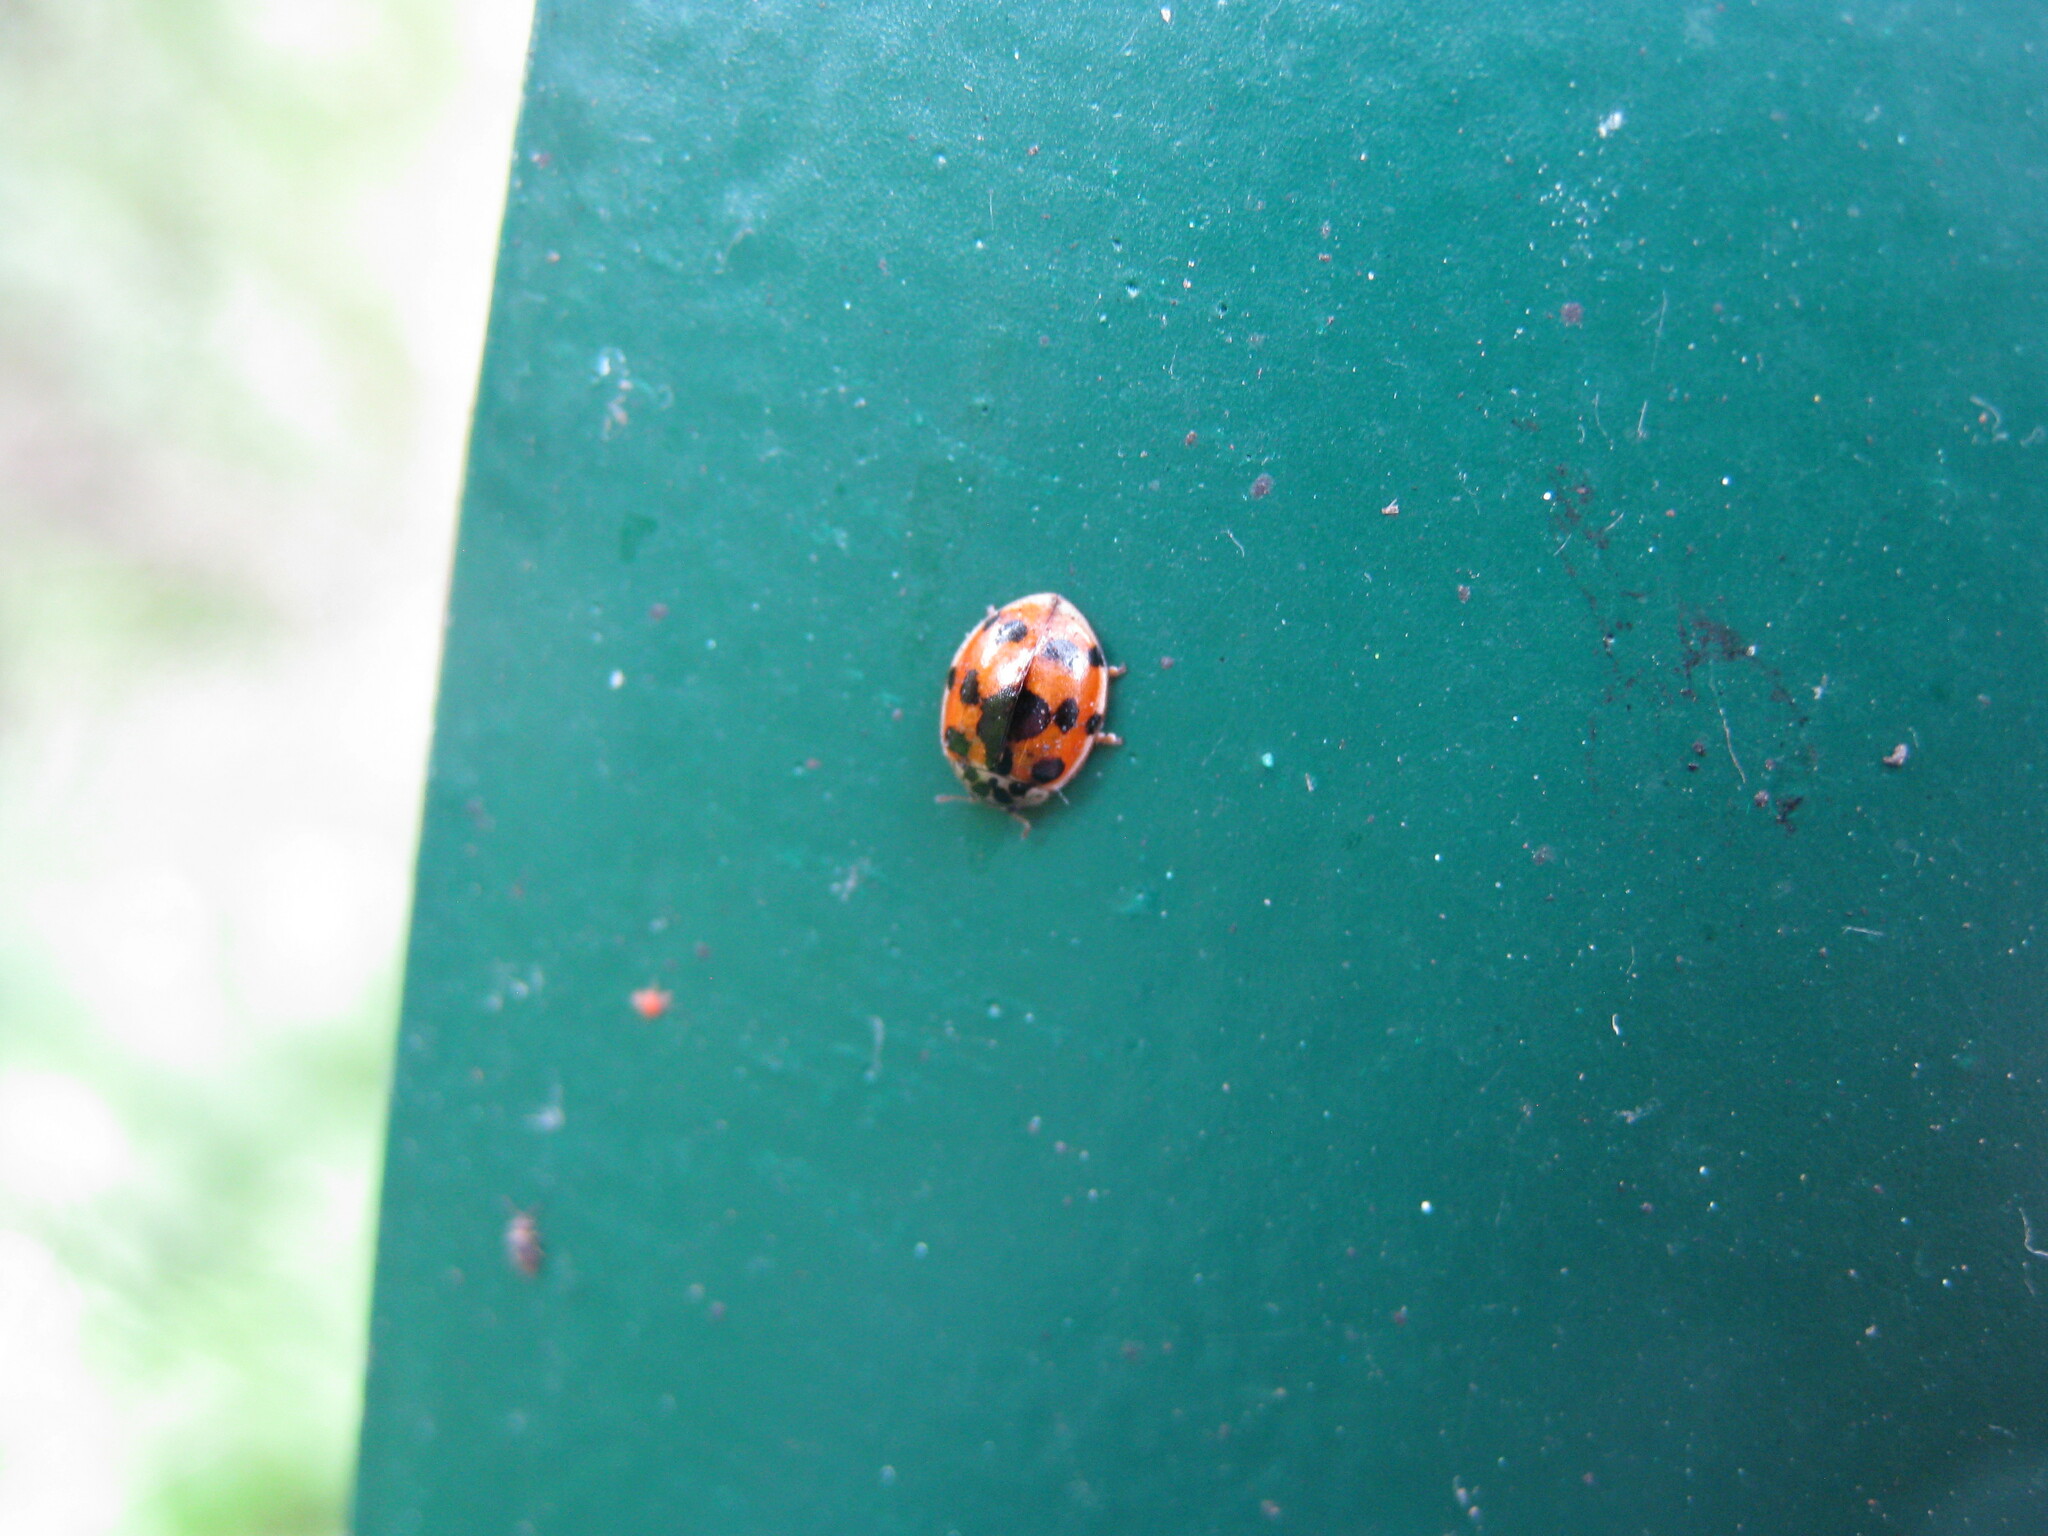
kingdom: Animalia
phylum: Arthropoda
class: Insecta
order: Coleoptera
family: Coccinellidae
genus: Adalia
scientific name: Adalia decempunctata
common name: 10-spot ladybird
